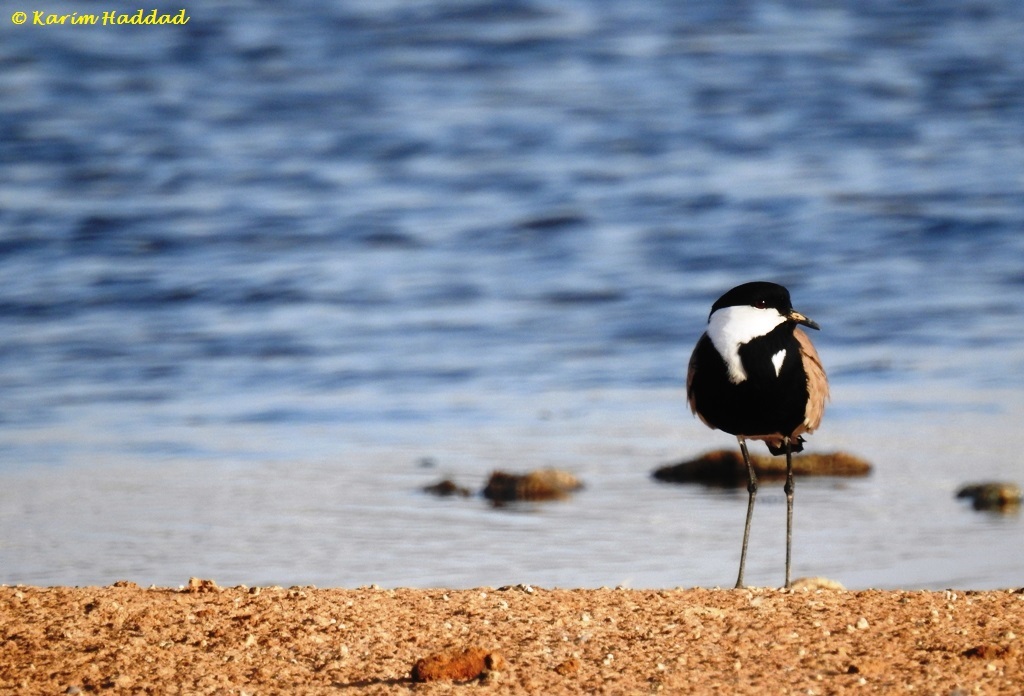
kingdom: Animalia
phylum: Chordata
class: Aves
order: Charadriiformes
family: Charadriidae
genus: Vanellus
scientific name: Vanellus spinosus
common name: Spur-winged lapwing
